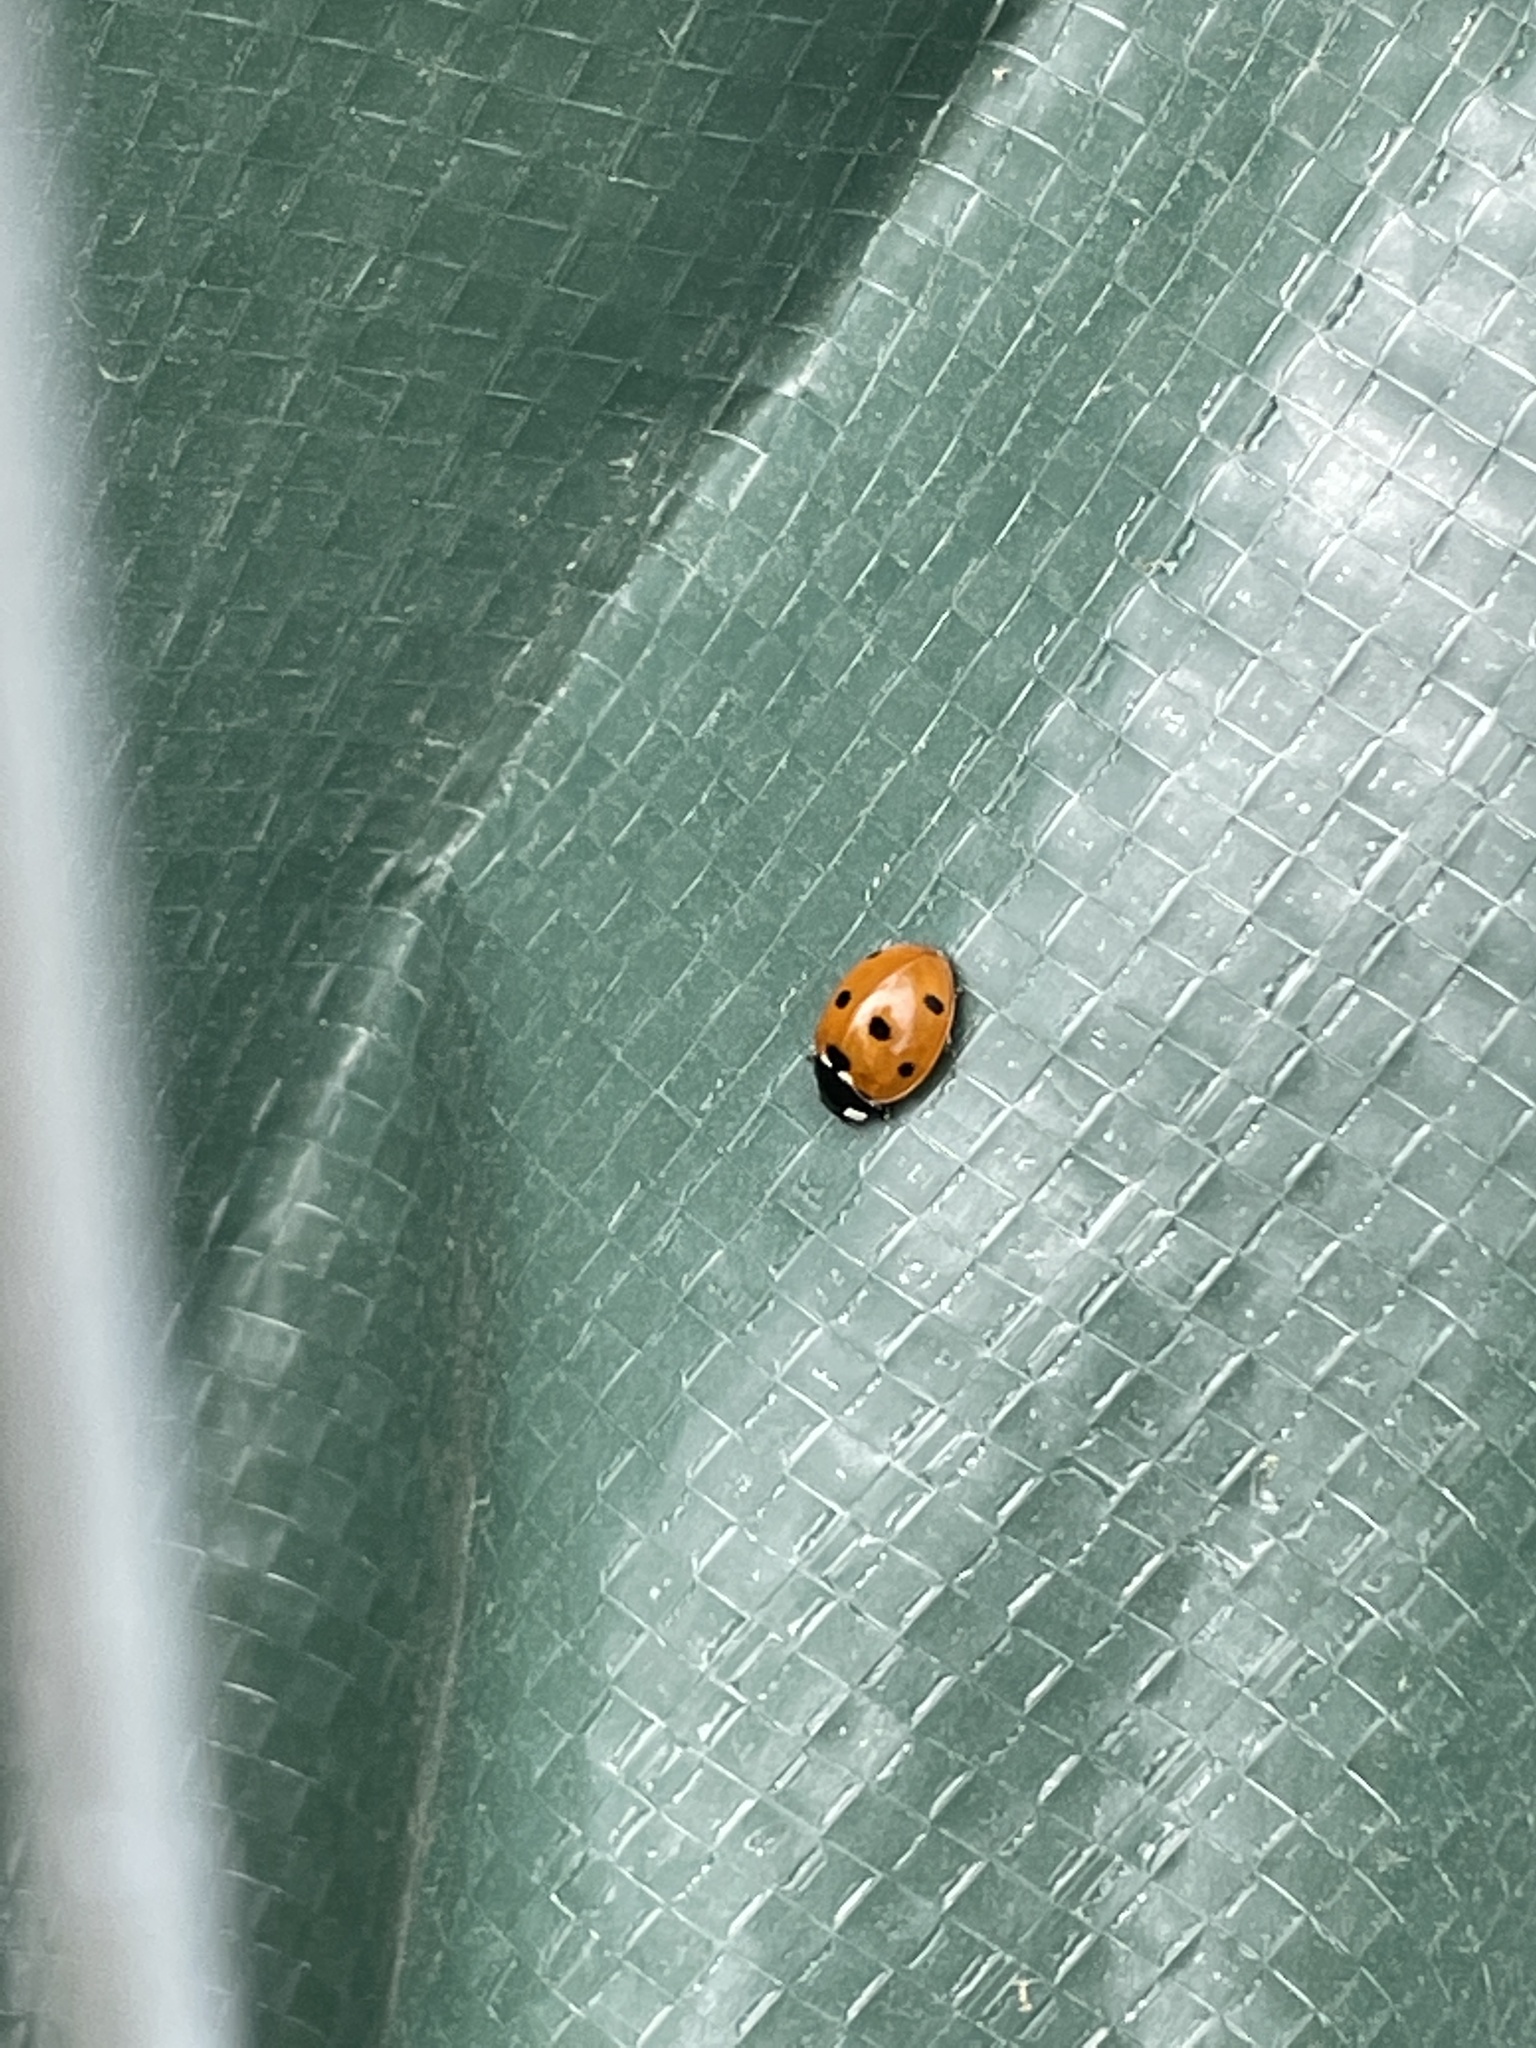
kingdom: Animalia
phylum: Arthropoda
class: Insecta
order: Coleoptera
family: Coccinellidae
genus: Coccinella
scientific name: Coccinella septempunctata
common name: Sevenspotted lady beetle
